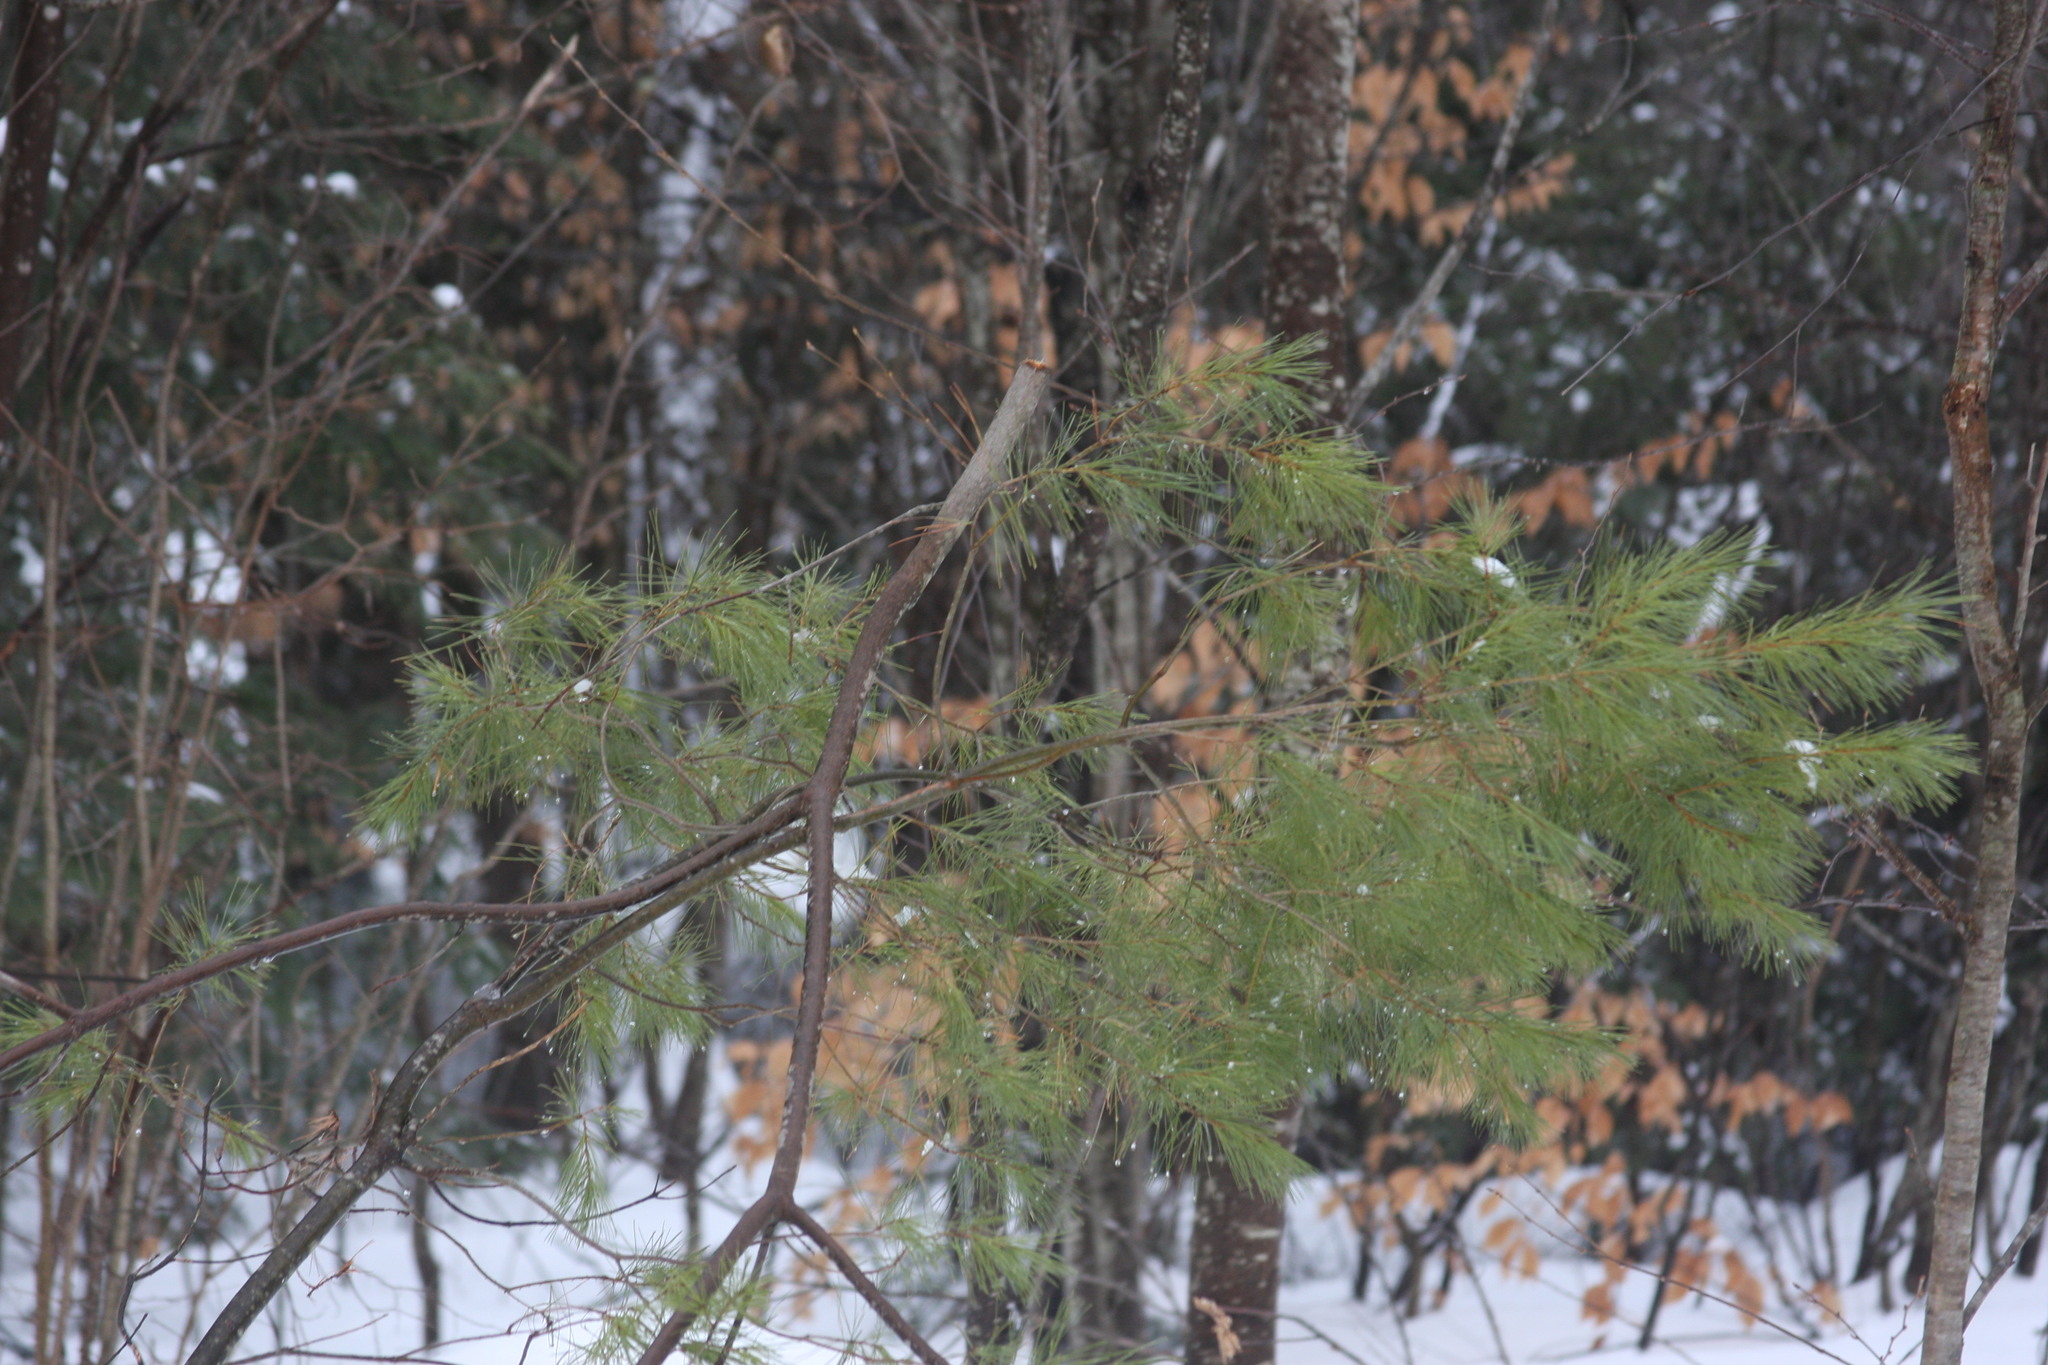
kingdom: Plantae
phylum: Tracheophyta
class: Pinopsida
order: Pinales
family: Pinaceae
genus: Pinus
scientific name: Pinus strobus
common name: Weymouth pine
